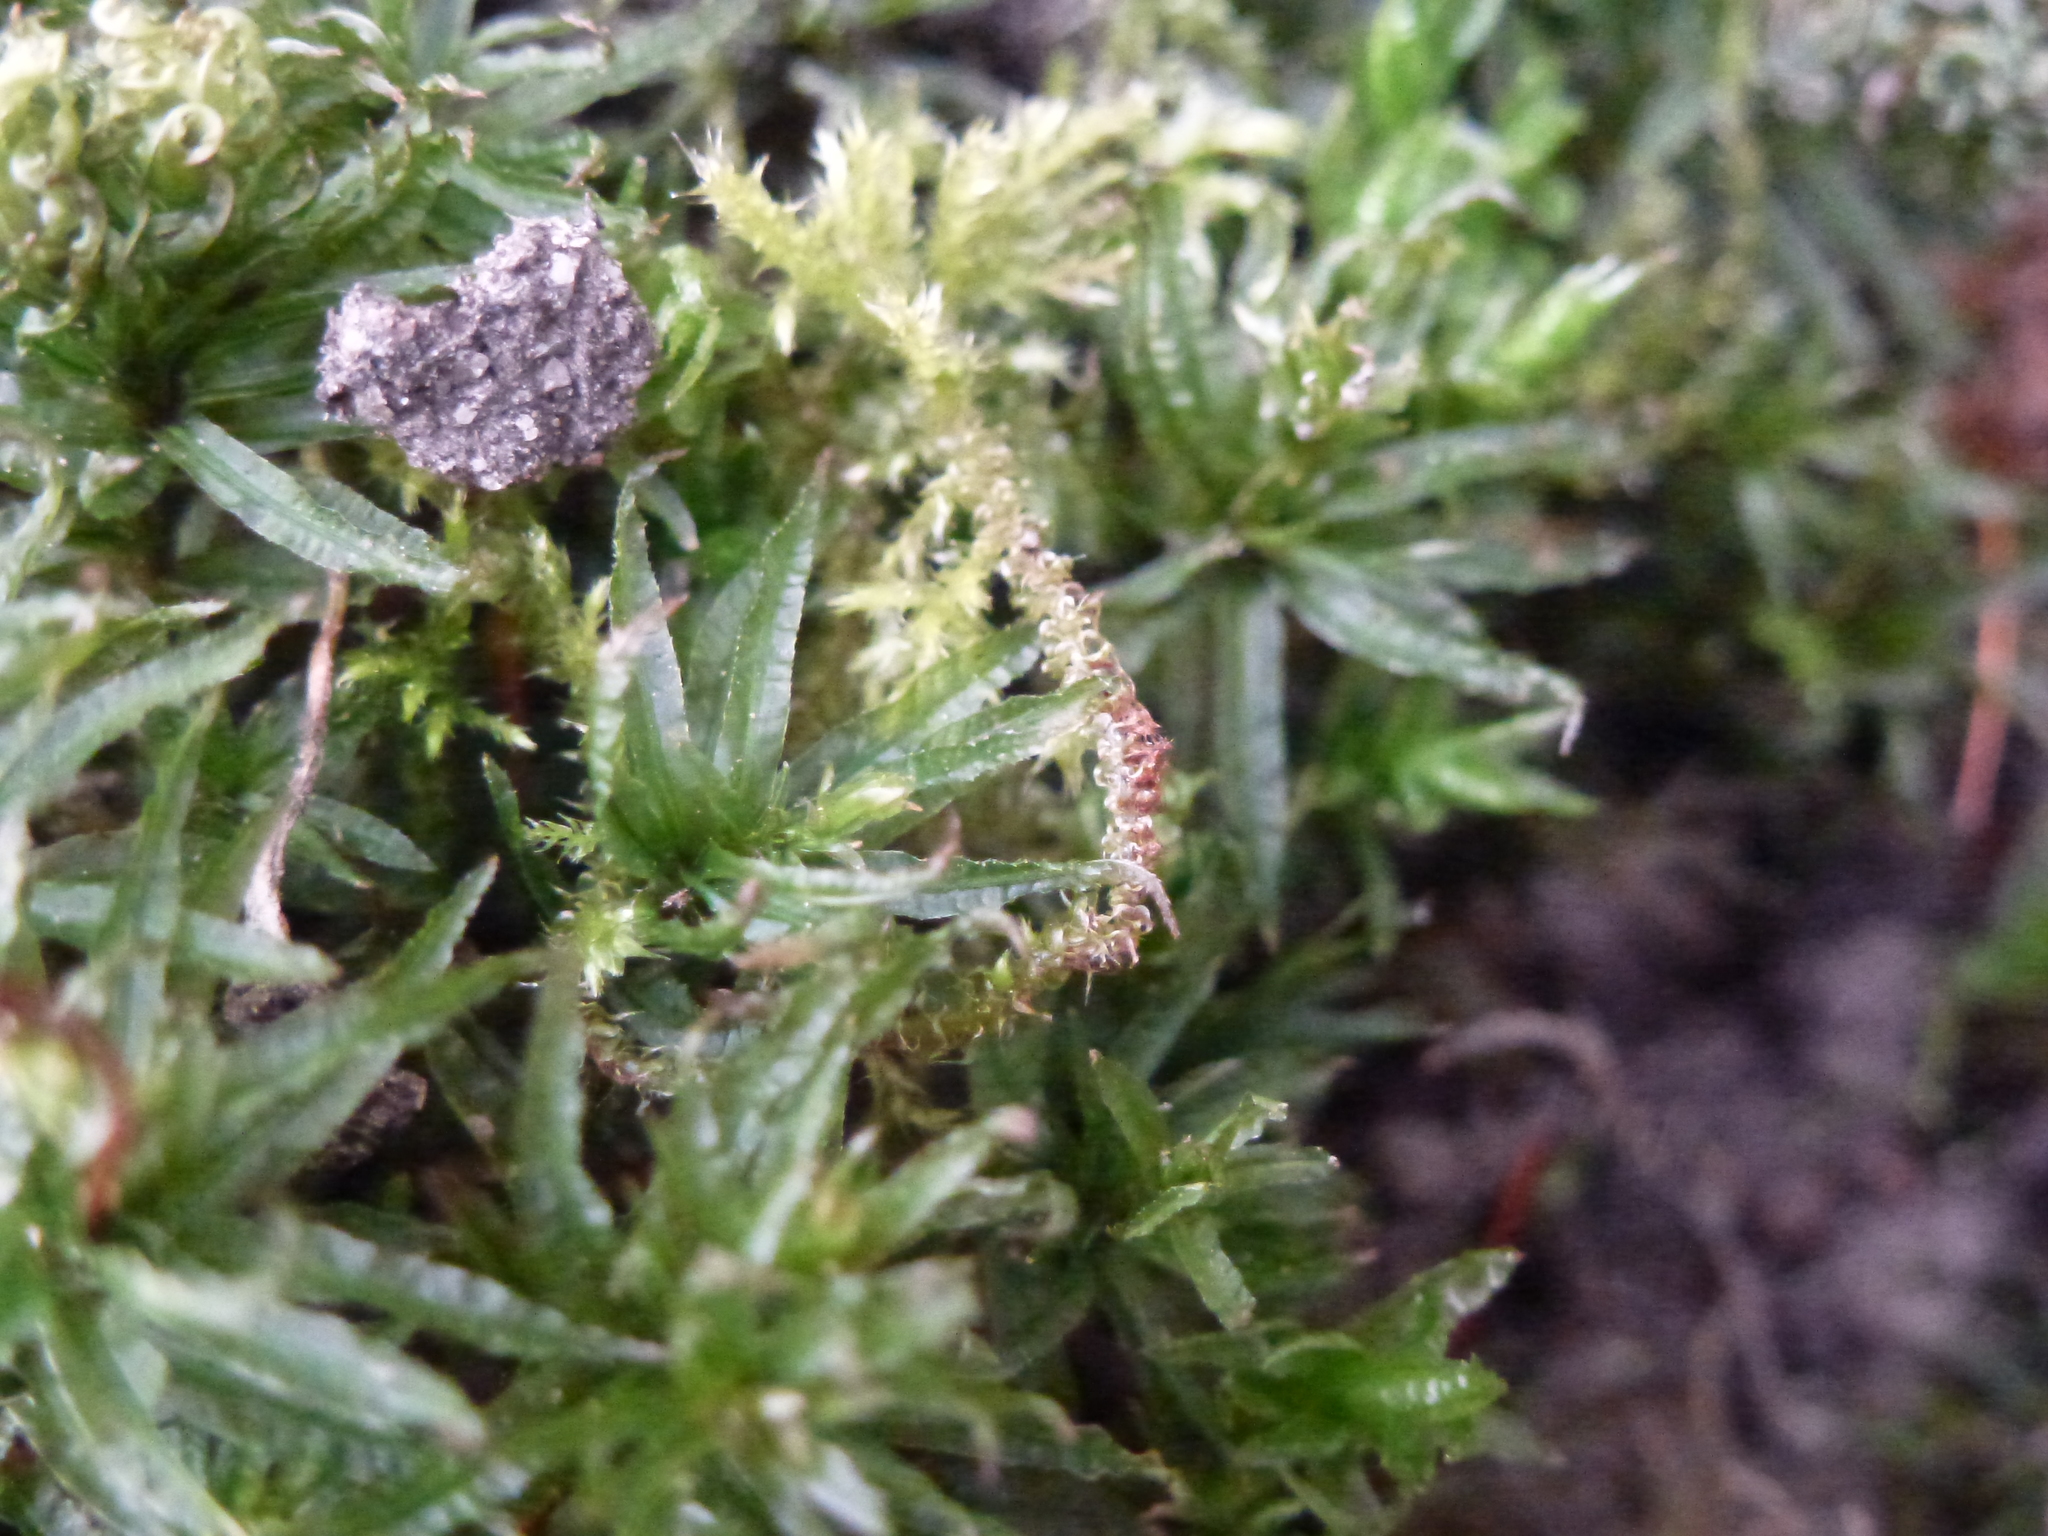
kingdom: Plantae
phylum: Bryophyta
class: Polytrichopsida
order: Polytrichales
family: Polytrichaceae
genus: Atrichum
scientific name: Atrichum undulatum
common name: Common smoothcap
